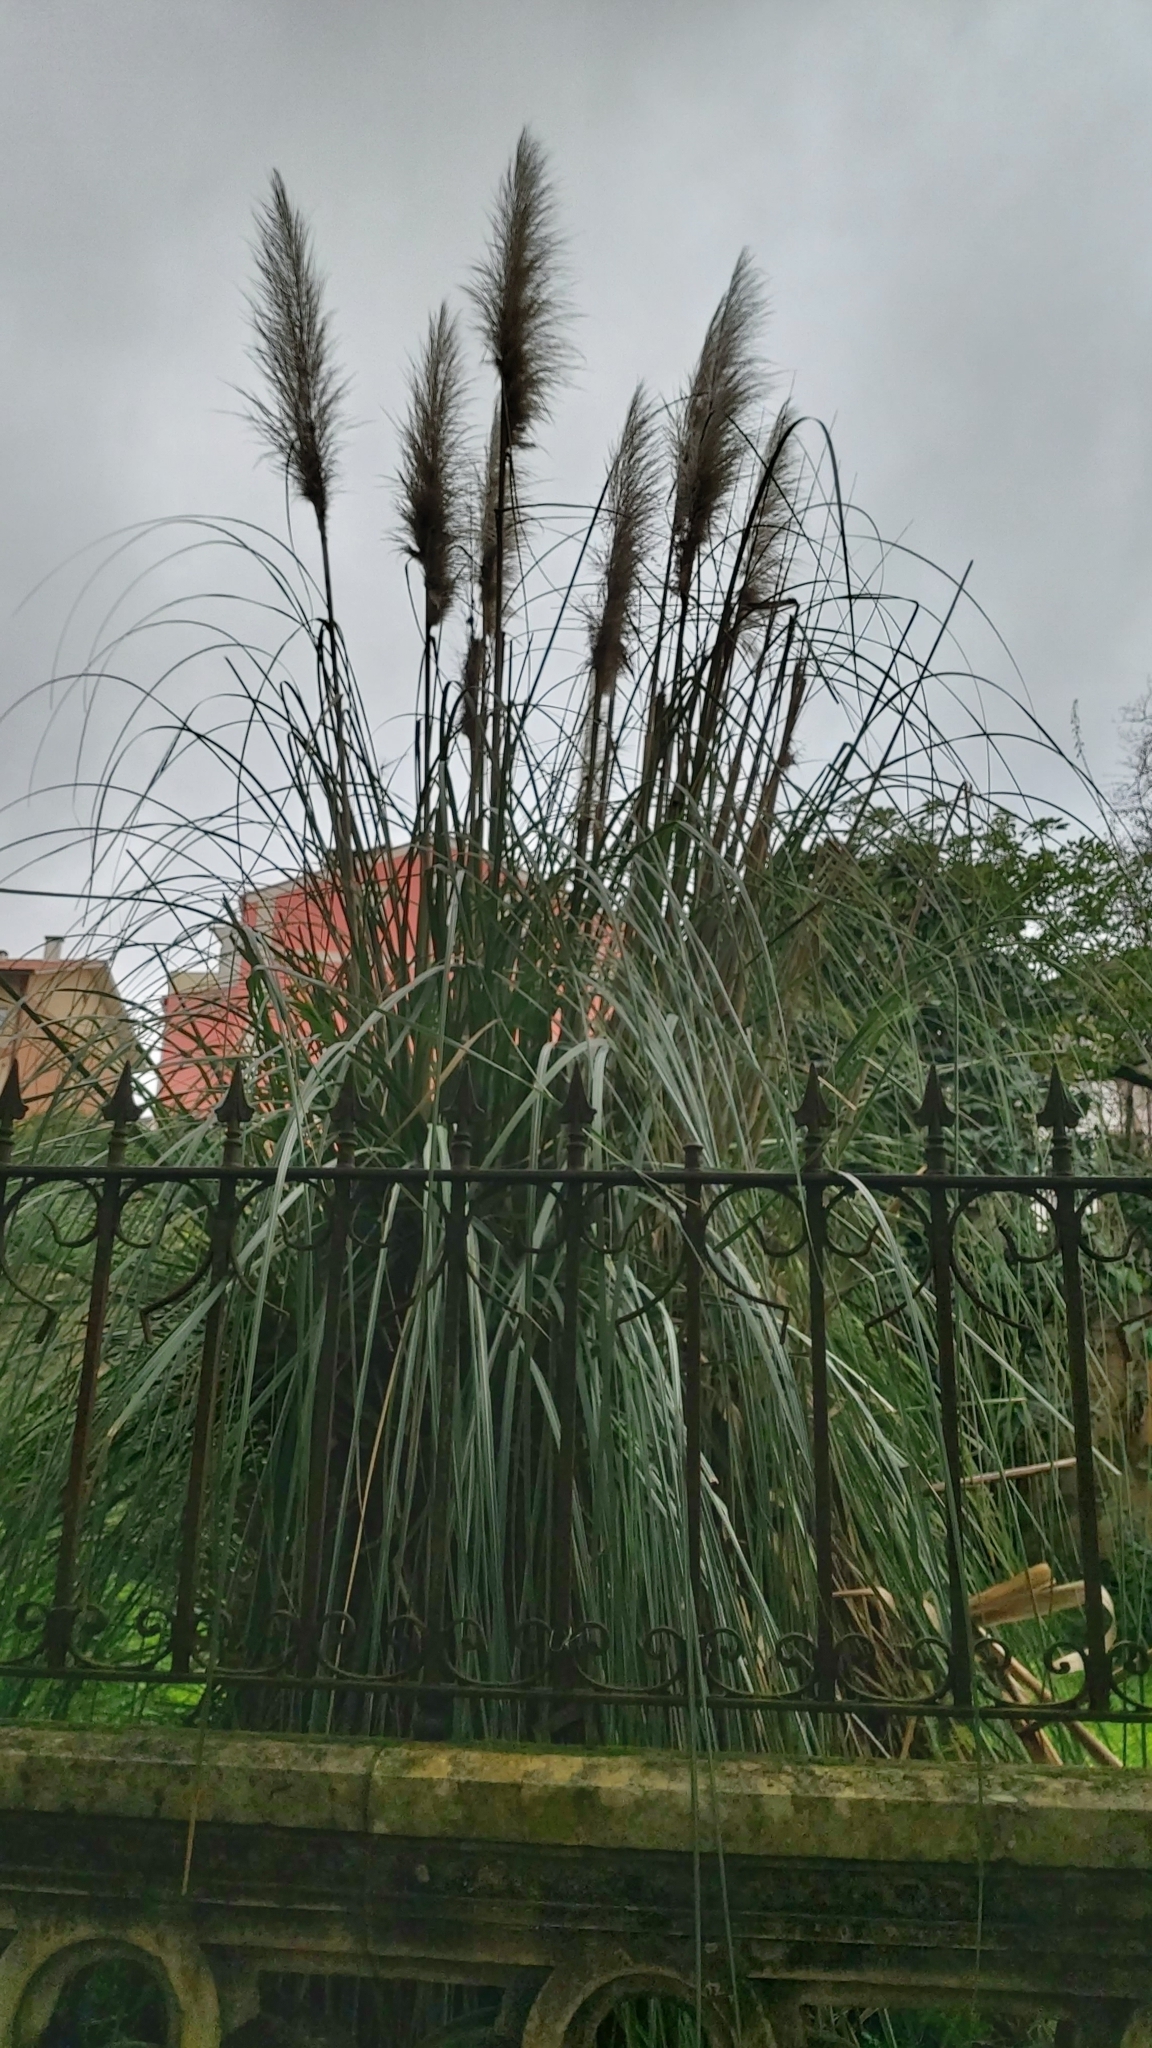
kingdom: Plantae
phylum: Tracheophyta
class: Liliopsida
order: Poales
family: Poaceae
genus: Cortaderia
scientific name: Cortaderia selloana
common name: Uruguayan pampas grass
